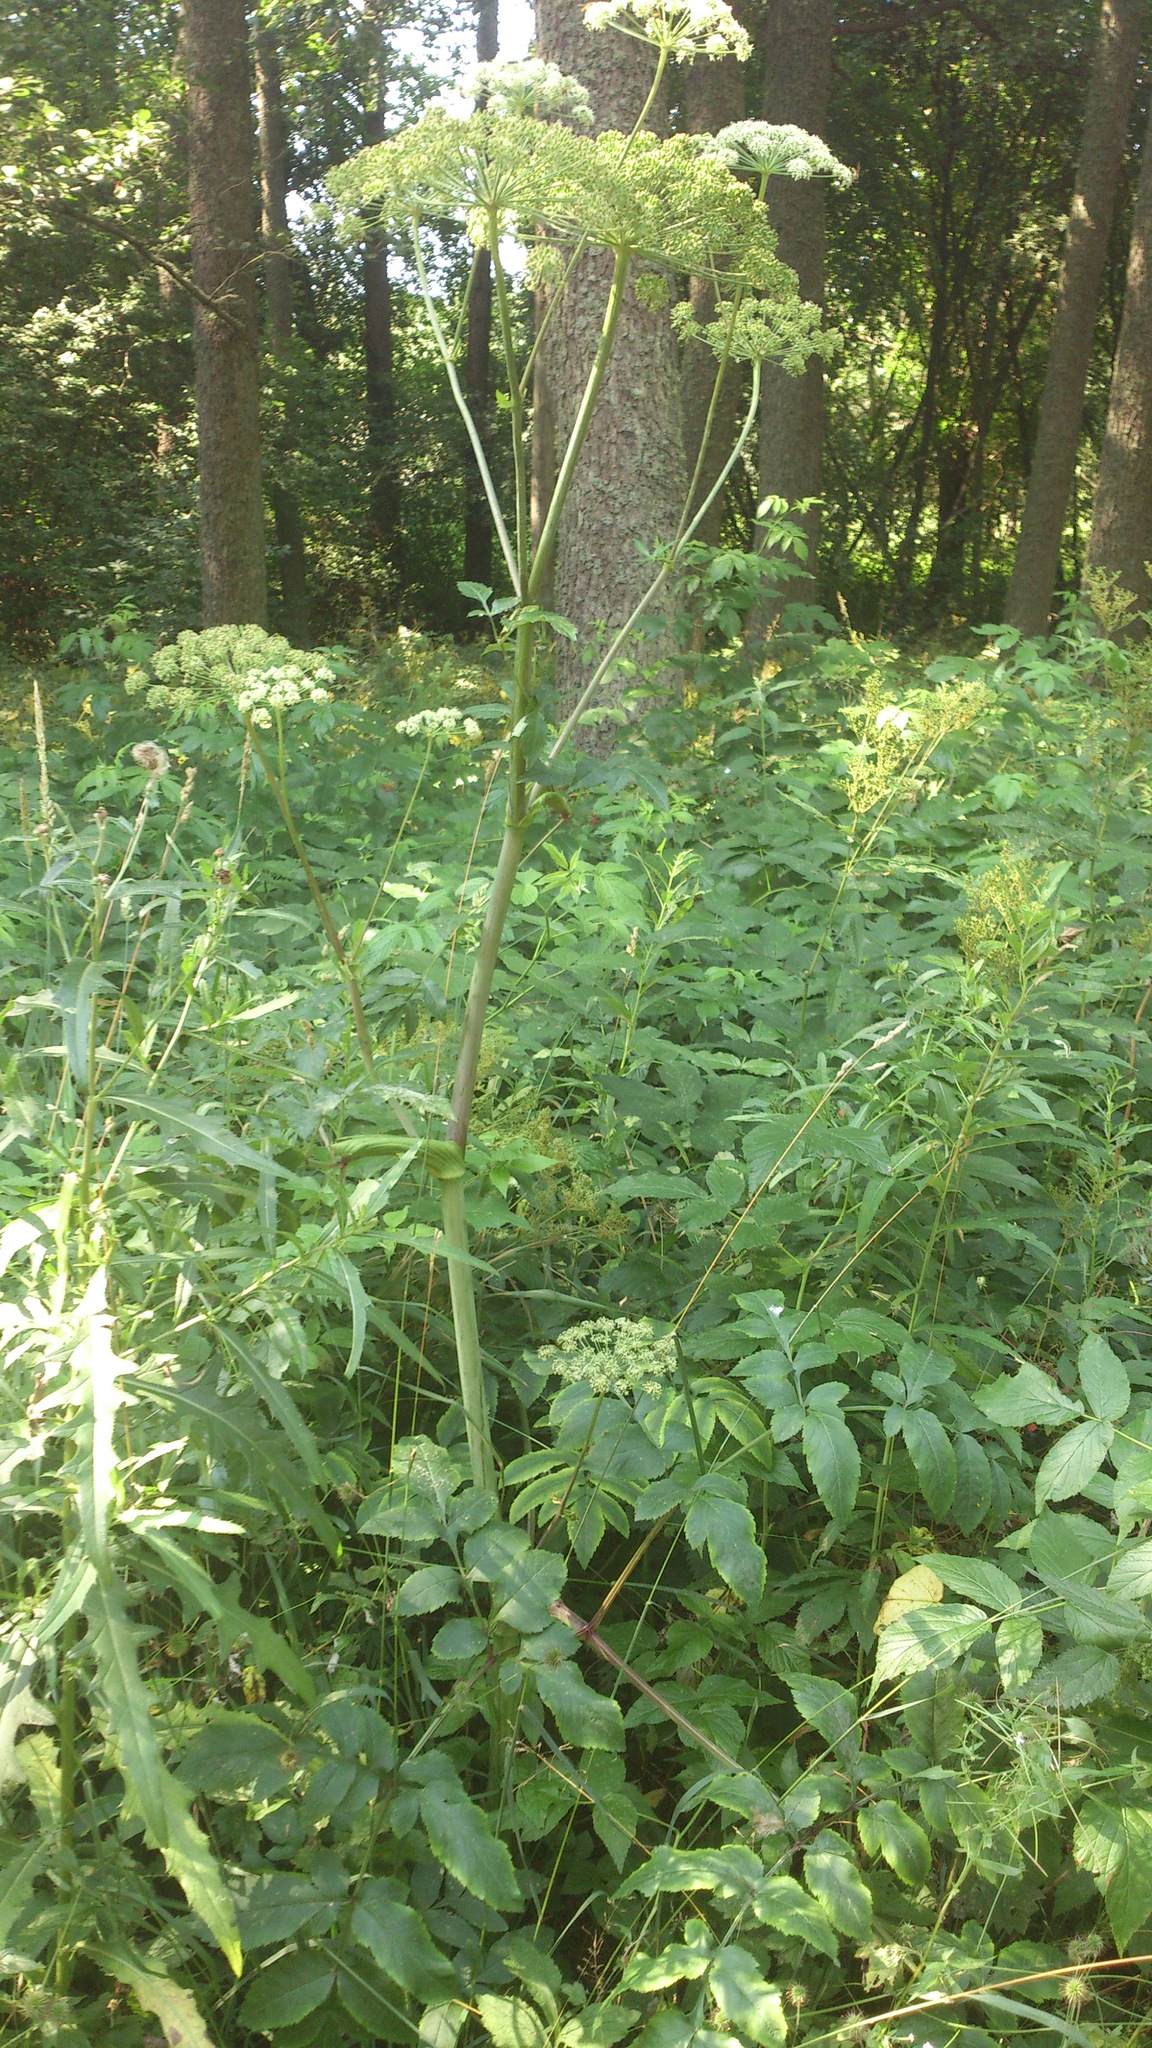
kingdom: Plantae
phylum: Tracheophyta
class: Magnoliopsida
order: Apiales
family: Apiaceae
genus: Angelica
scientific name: Angelica sylvestris
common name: Wild angelica
